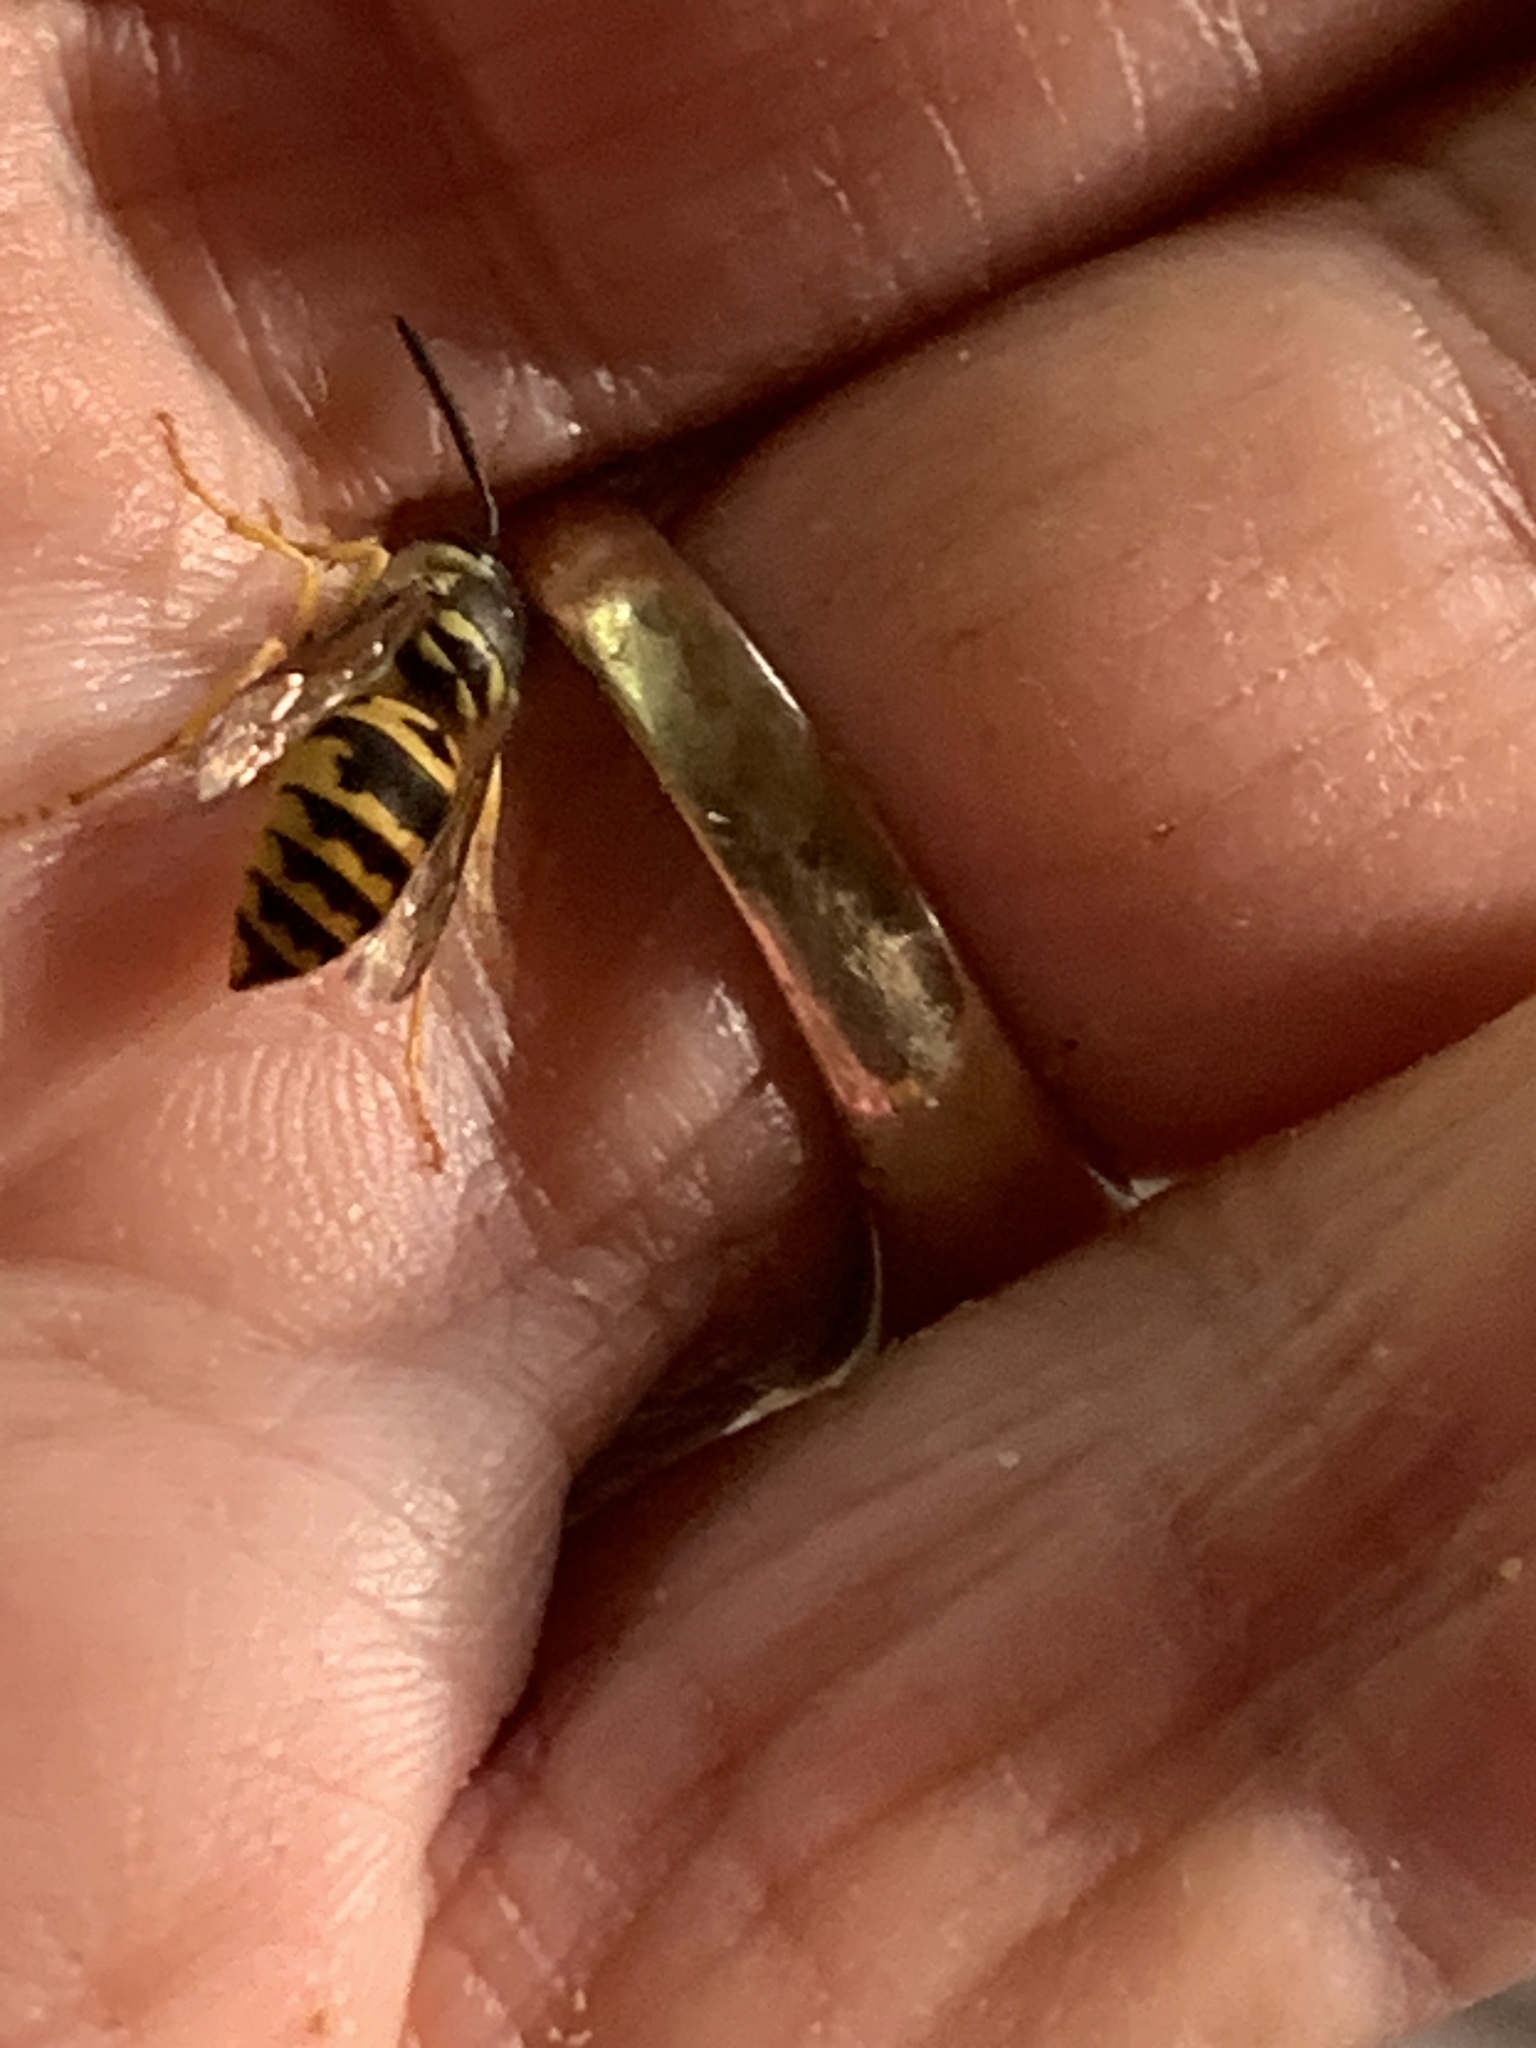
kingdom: Animalia
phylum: Arthropoda
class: Insecta
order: Hymenoptera
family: Vespidae
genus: Vespula
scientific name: Vespula maculifrons
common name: Eastern yellowjacket
